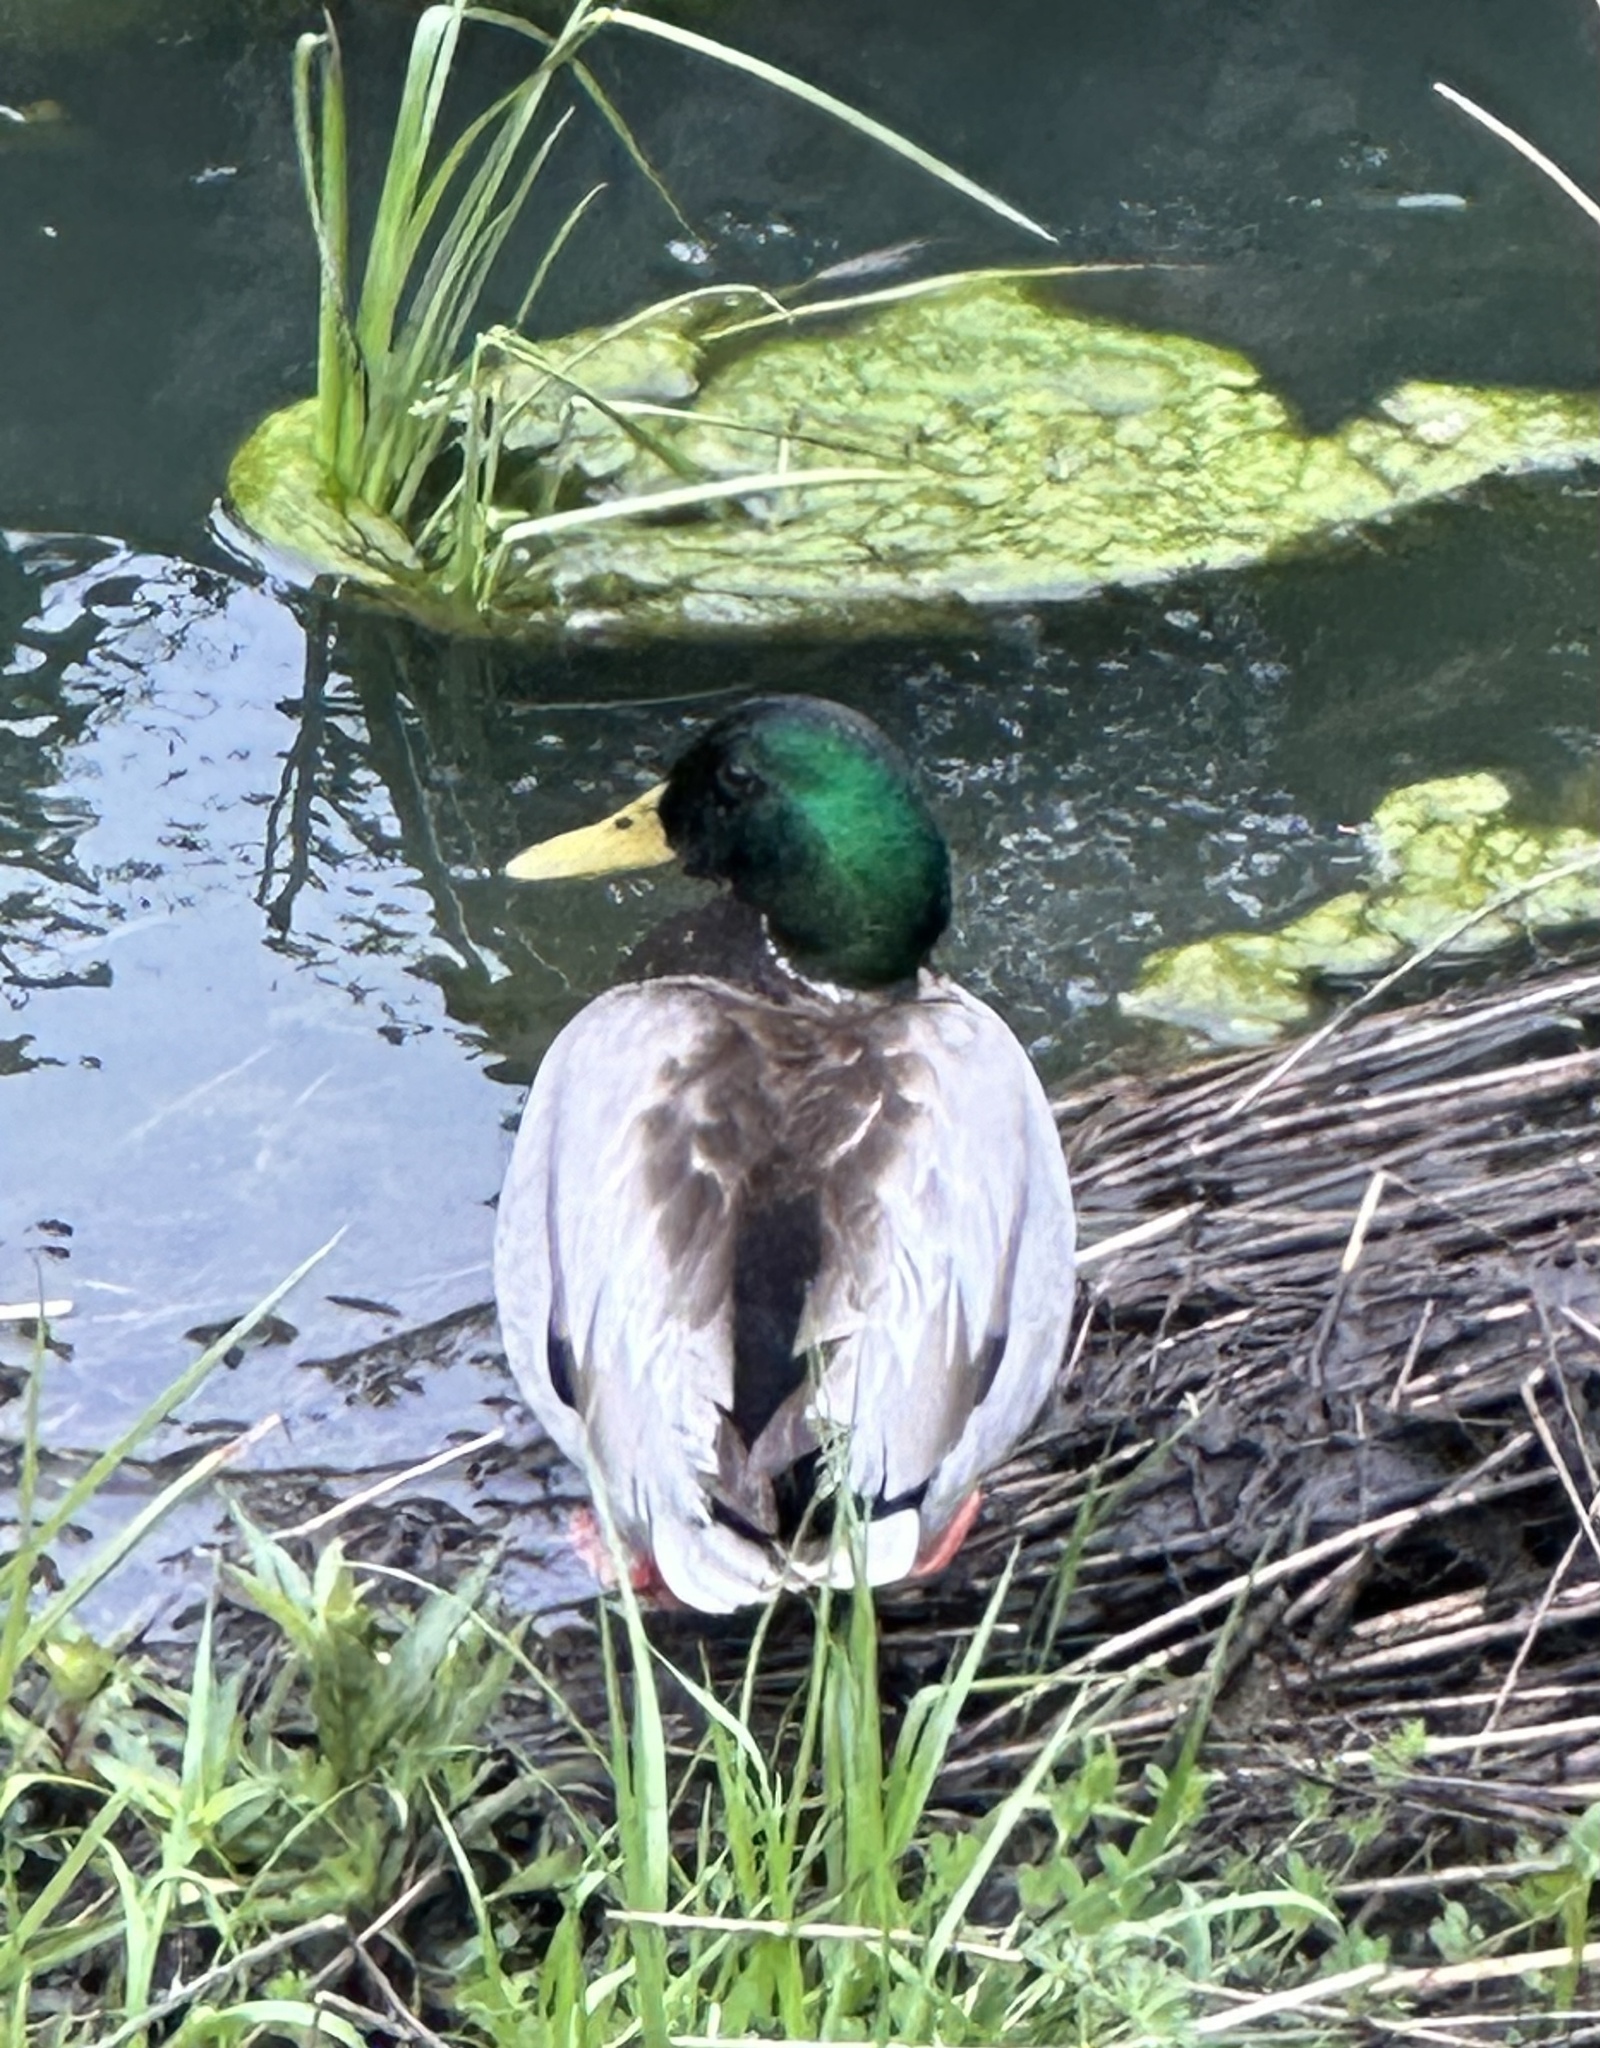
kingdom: Animalia
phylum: Chordata
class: Aves
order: Anseriformes
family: Anatidae
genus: Anas
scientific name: Anas platyrhynchos
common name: Mallard
